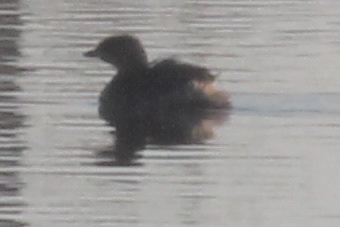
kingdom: Animalia
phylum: Chordata
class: Aves
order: Podicipediformes
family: Podicipedidae
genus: Podilymbus
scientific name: Podilymbus podiceps
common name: Pied-billed grebe
